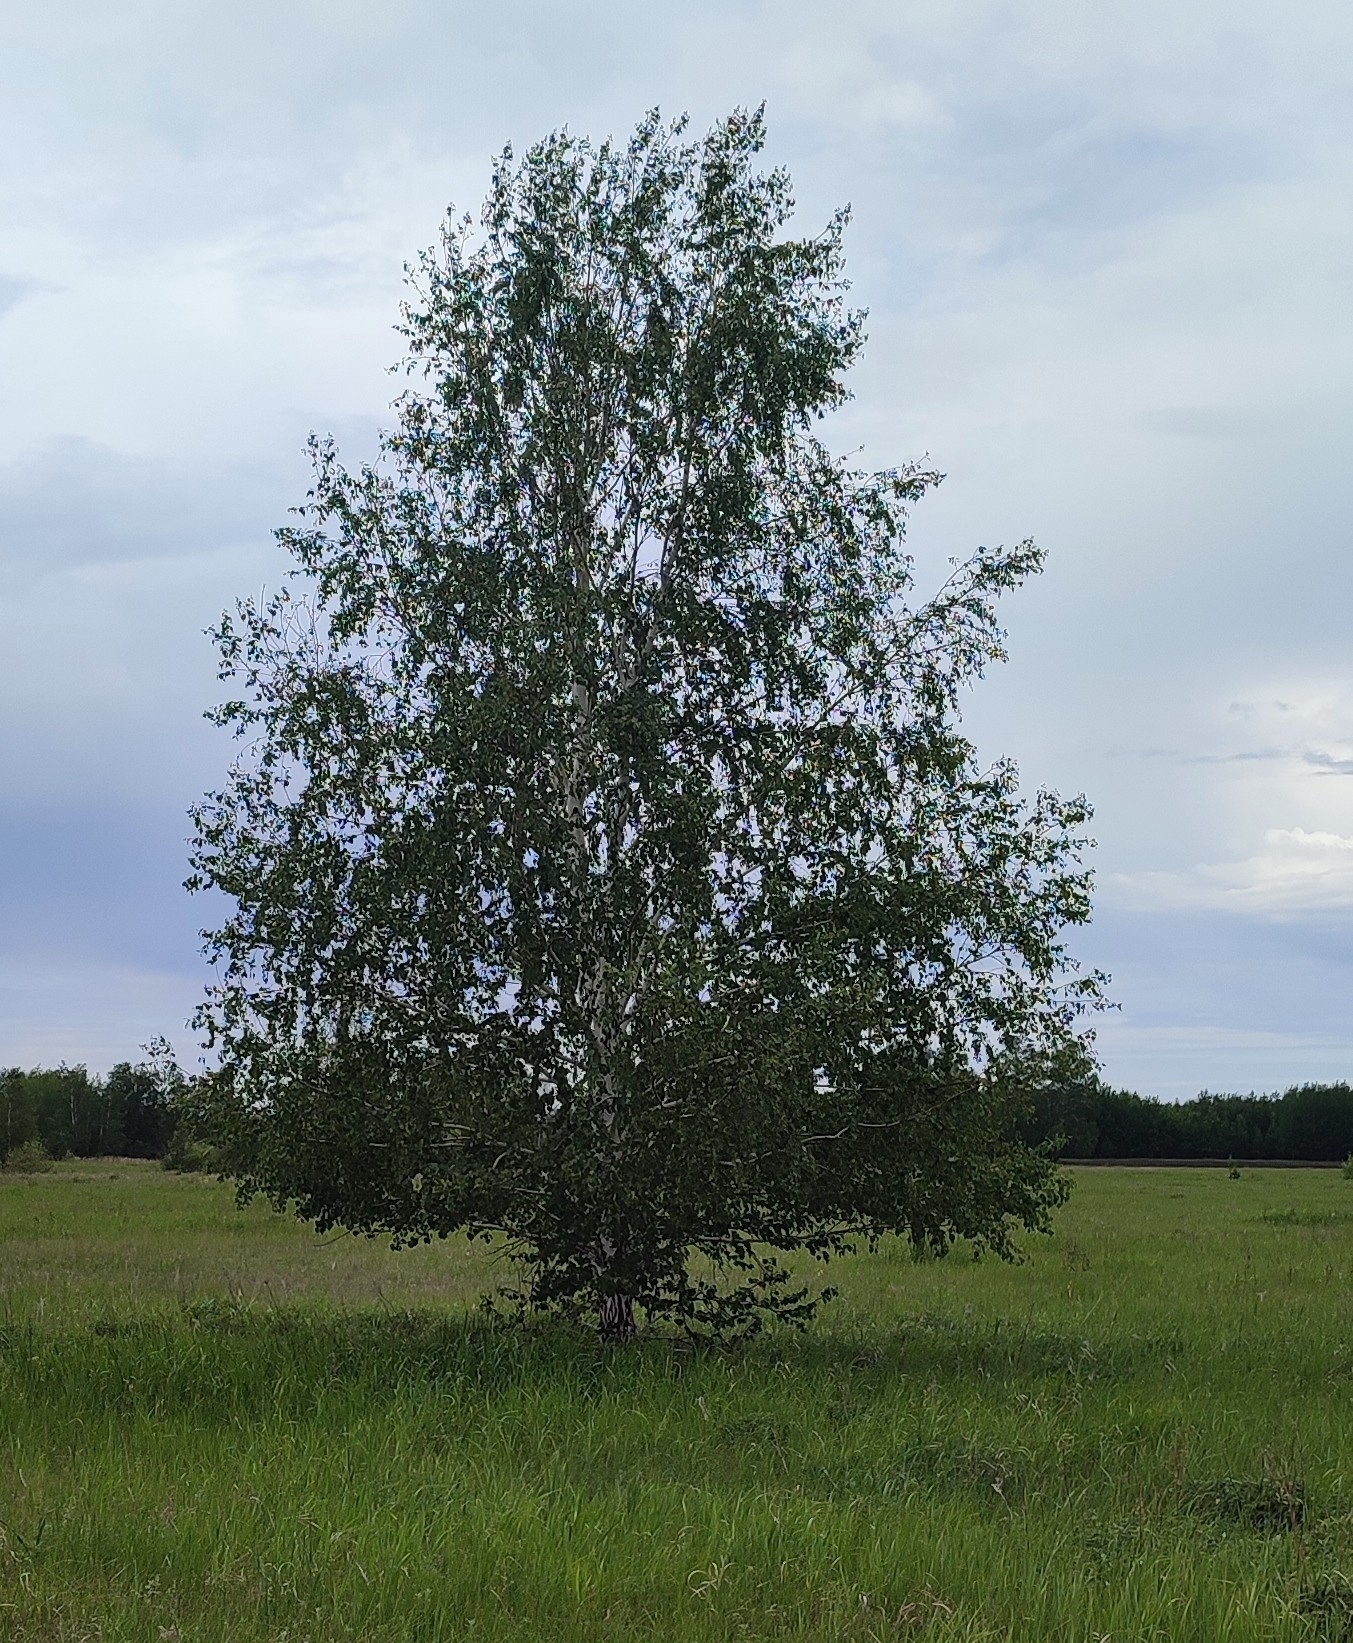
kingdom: Plantae
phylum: Tracheophyta
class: Magnoliopsida
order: Fagales
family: Betulaceae
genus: Betula
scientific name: Betula pendula
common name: Silver birch
